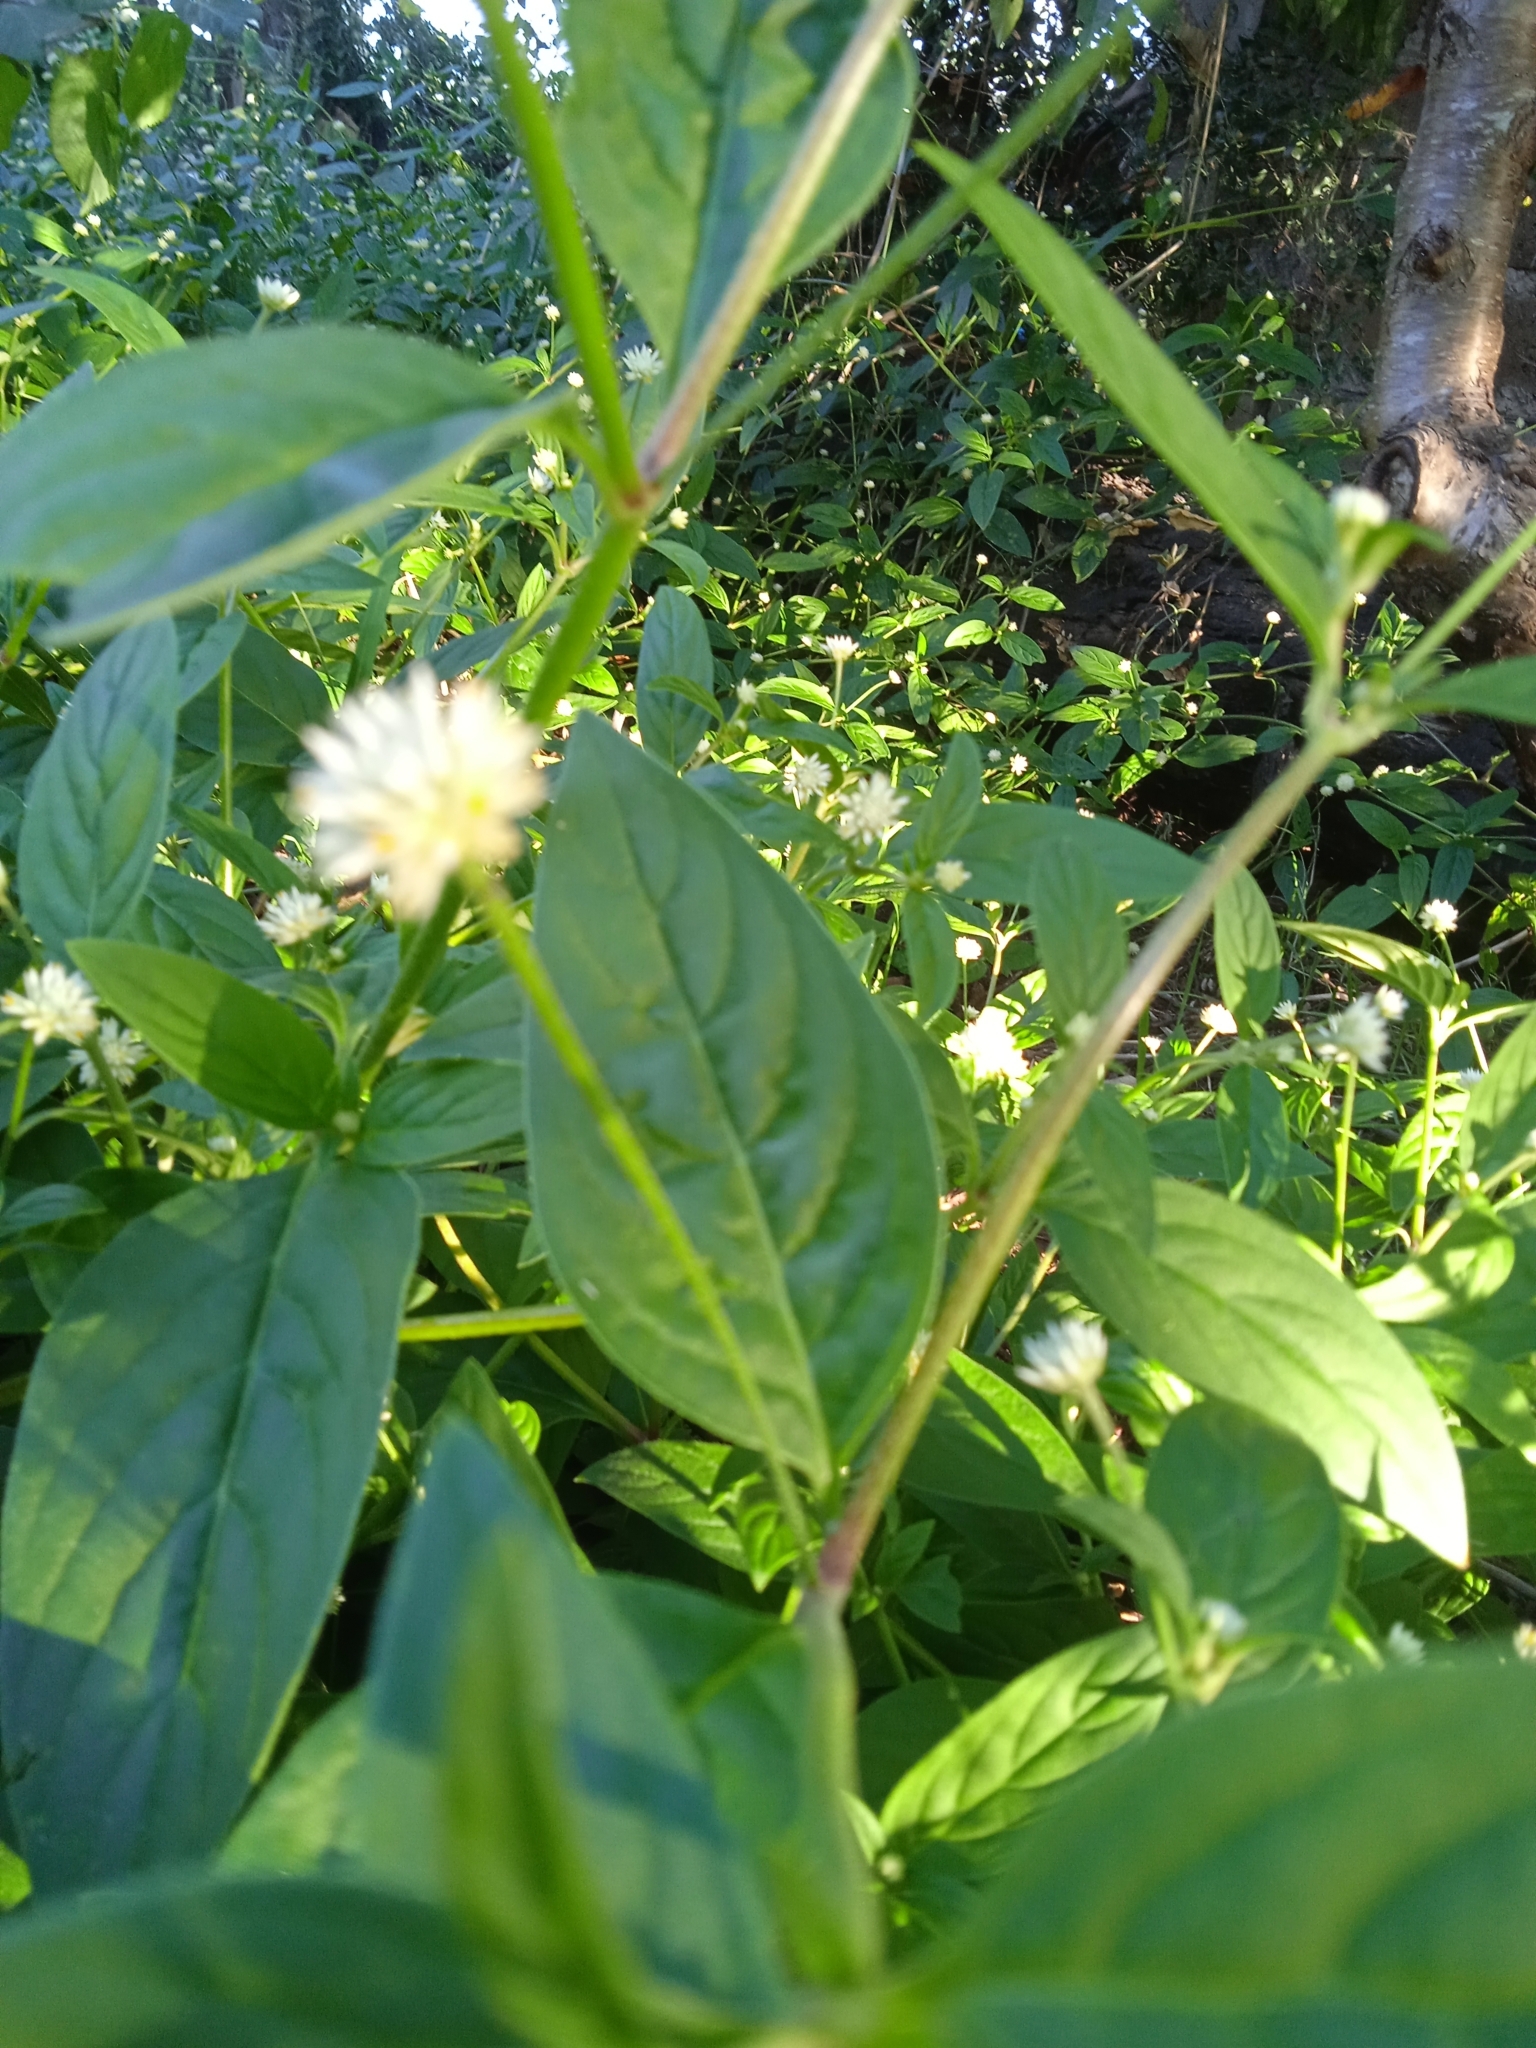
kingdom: Plantae
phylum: Tracheophyta
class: Magnoliopsida
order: Caryophyllales
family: Amaranthaceae
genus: Gomphrena
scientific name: Gomphrena elegans
